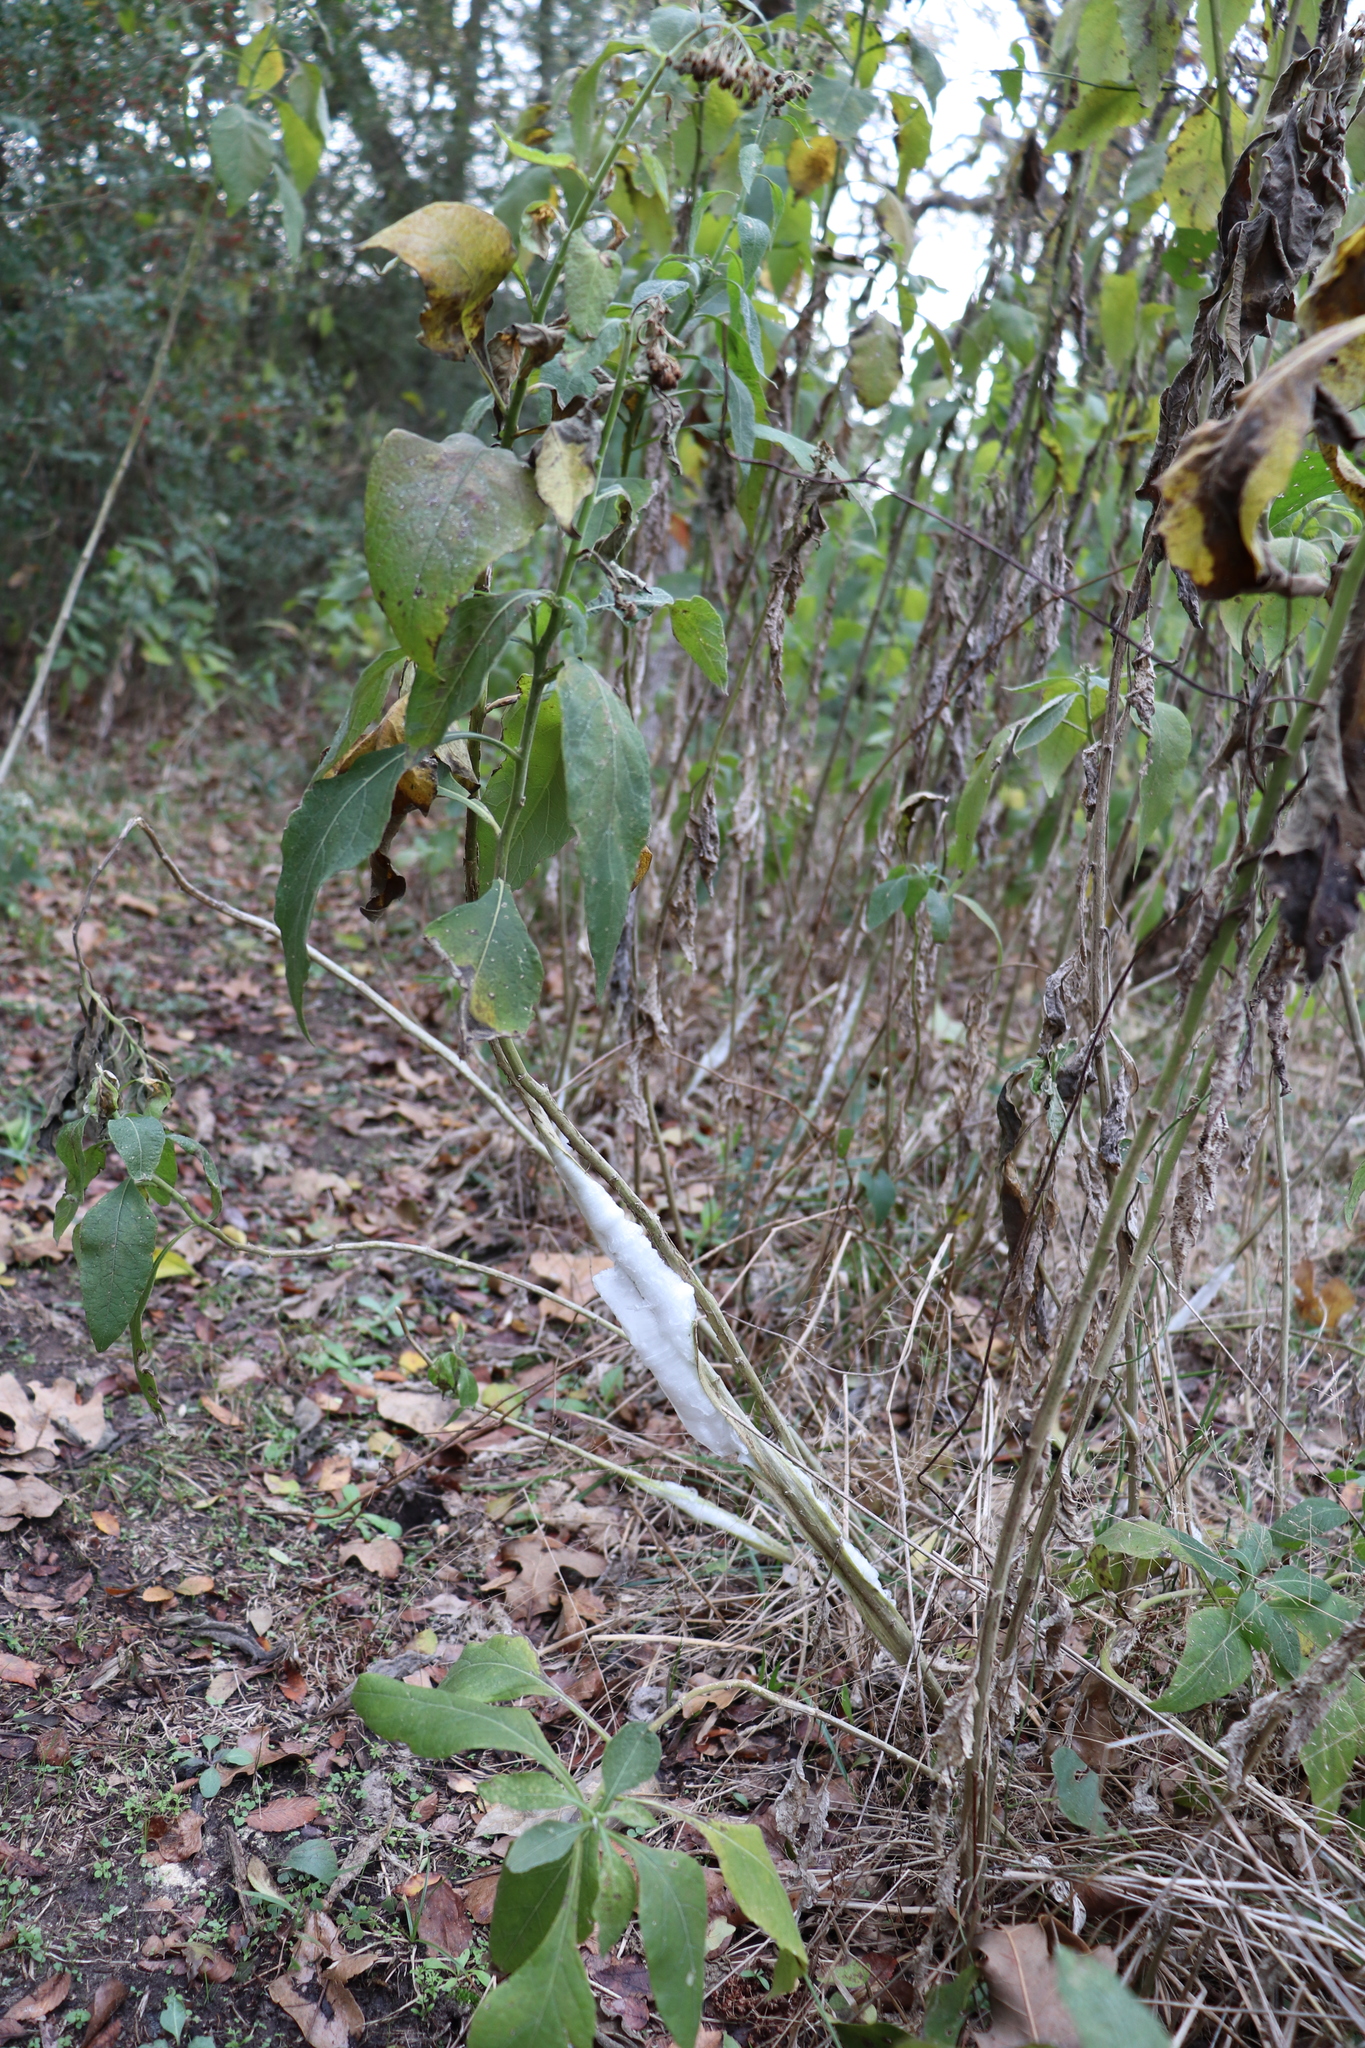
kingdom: Plantae
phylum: Tracheophyta
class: Magnoliopsida
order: Asterales
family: Asteraceae
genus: Verbesina
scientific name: Verbesina virginica
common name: Frostweed
